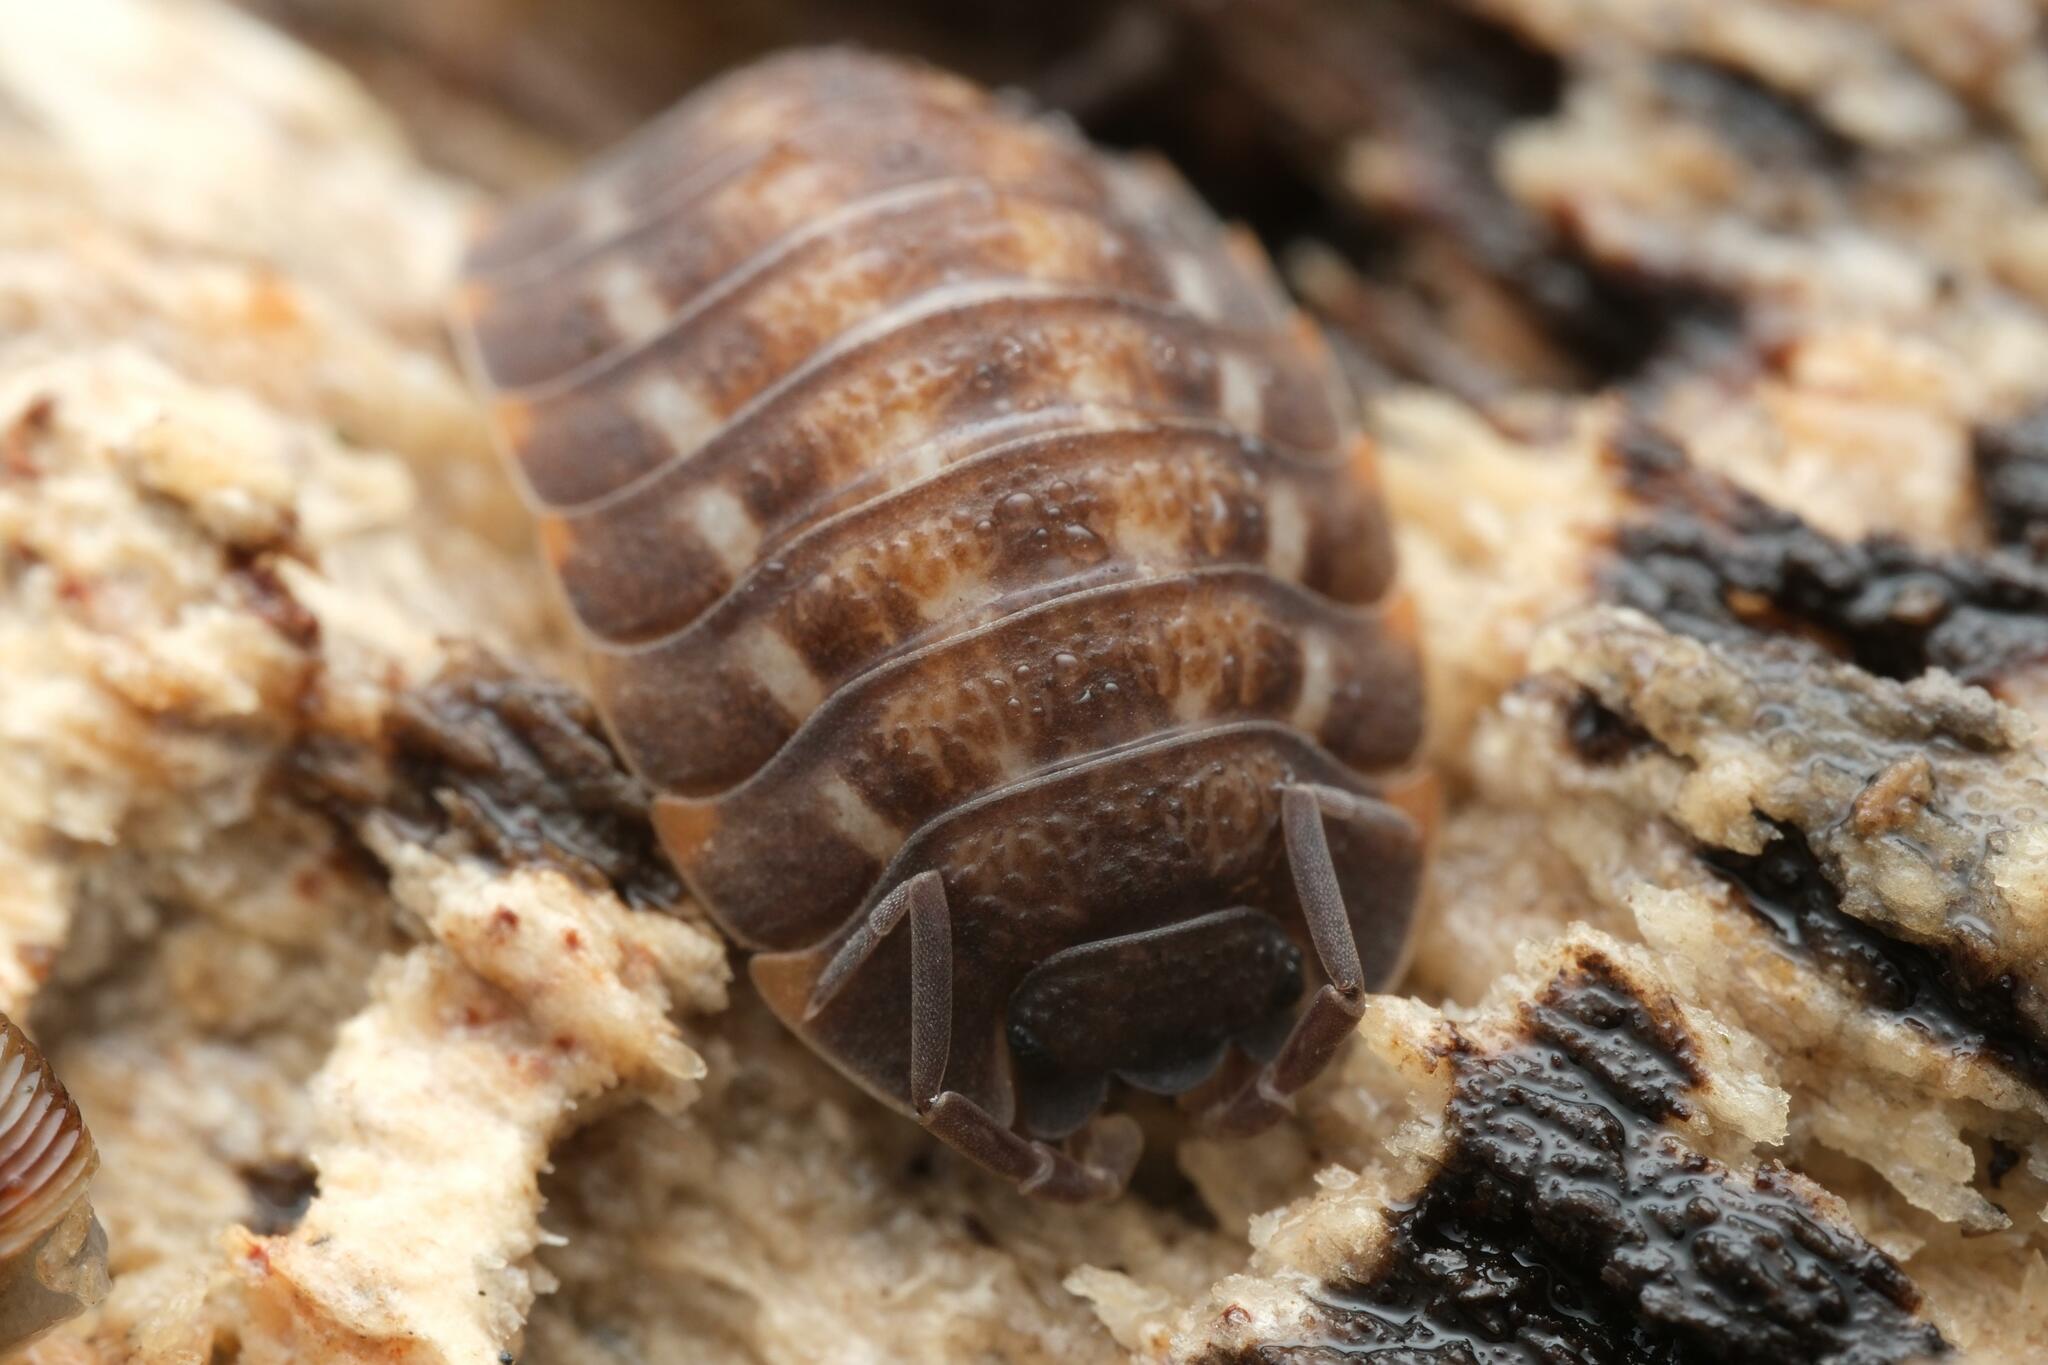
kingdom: Animalia
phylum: Arthropoda
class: Malacostraca
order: Isopoda
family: Trachelipodidae
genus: Trachelipus
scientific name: Trachelipus ratzeburgii
